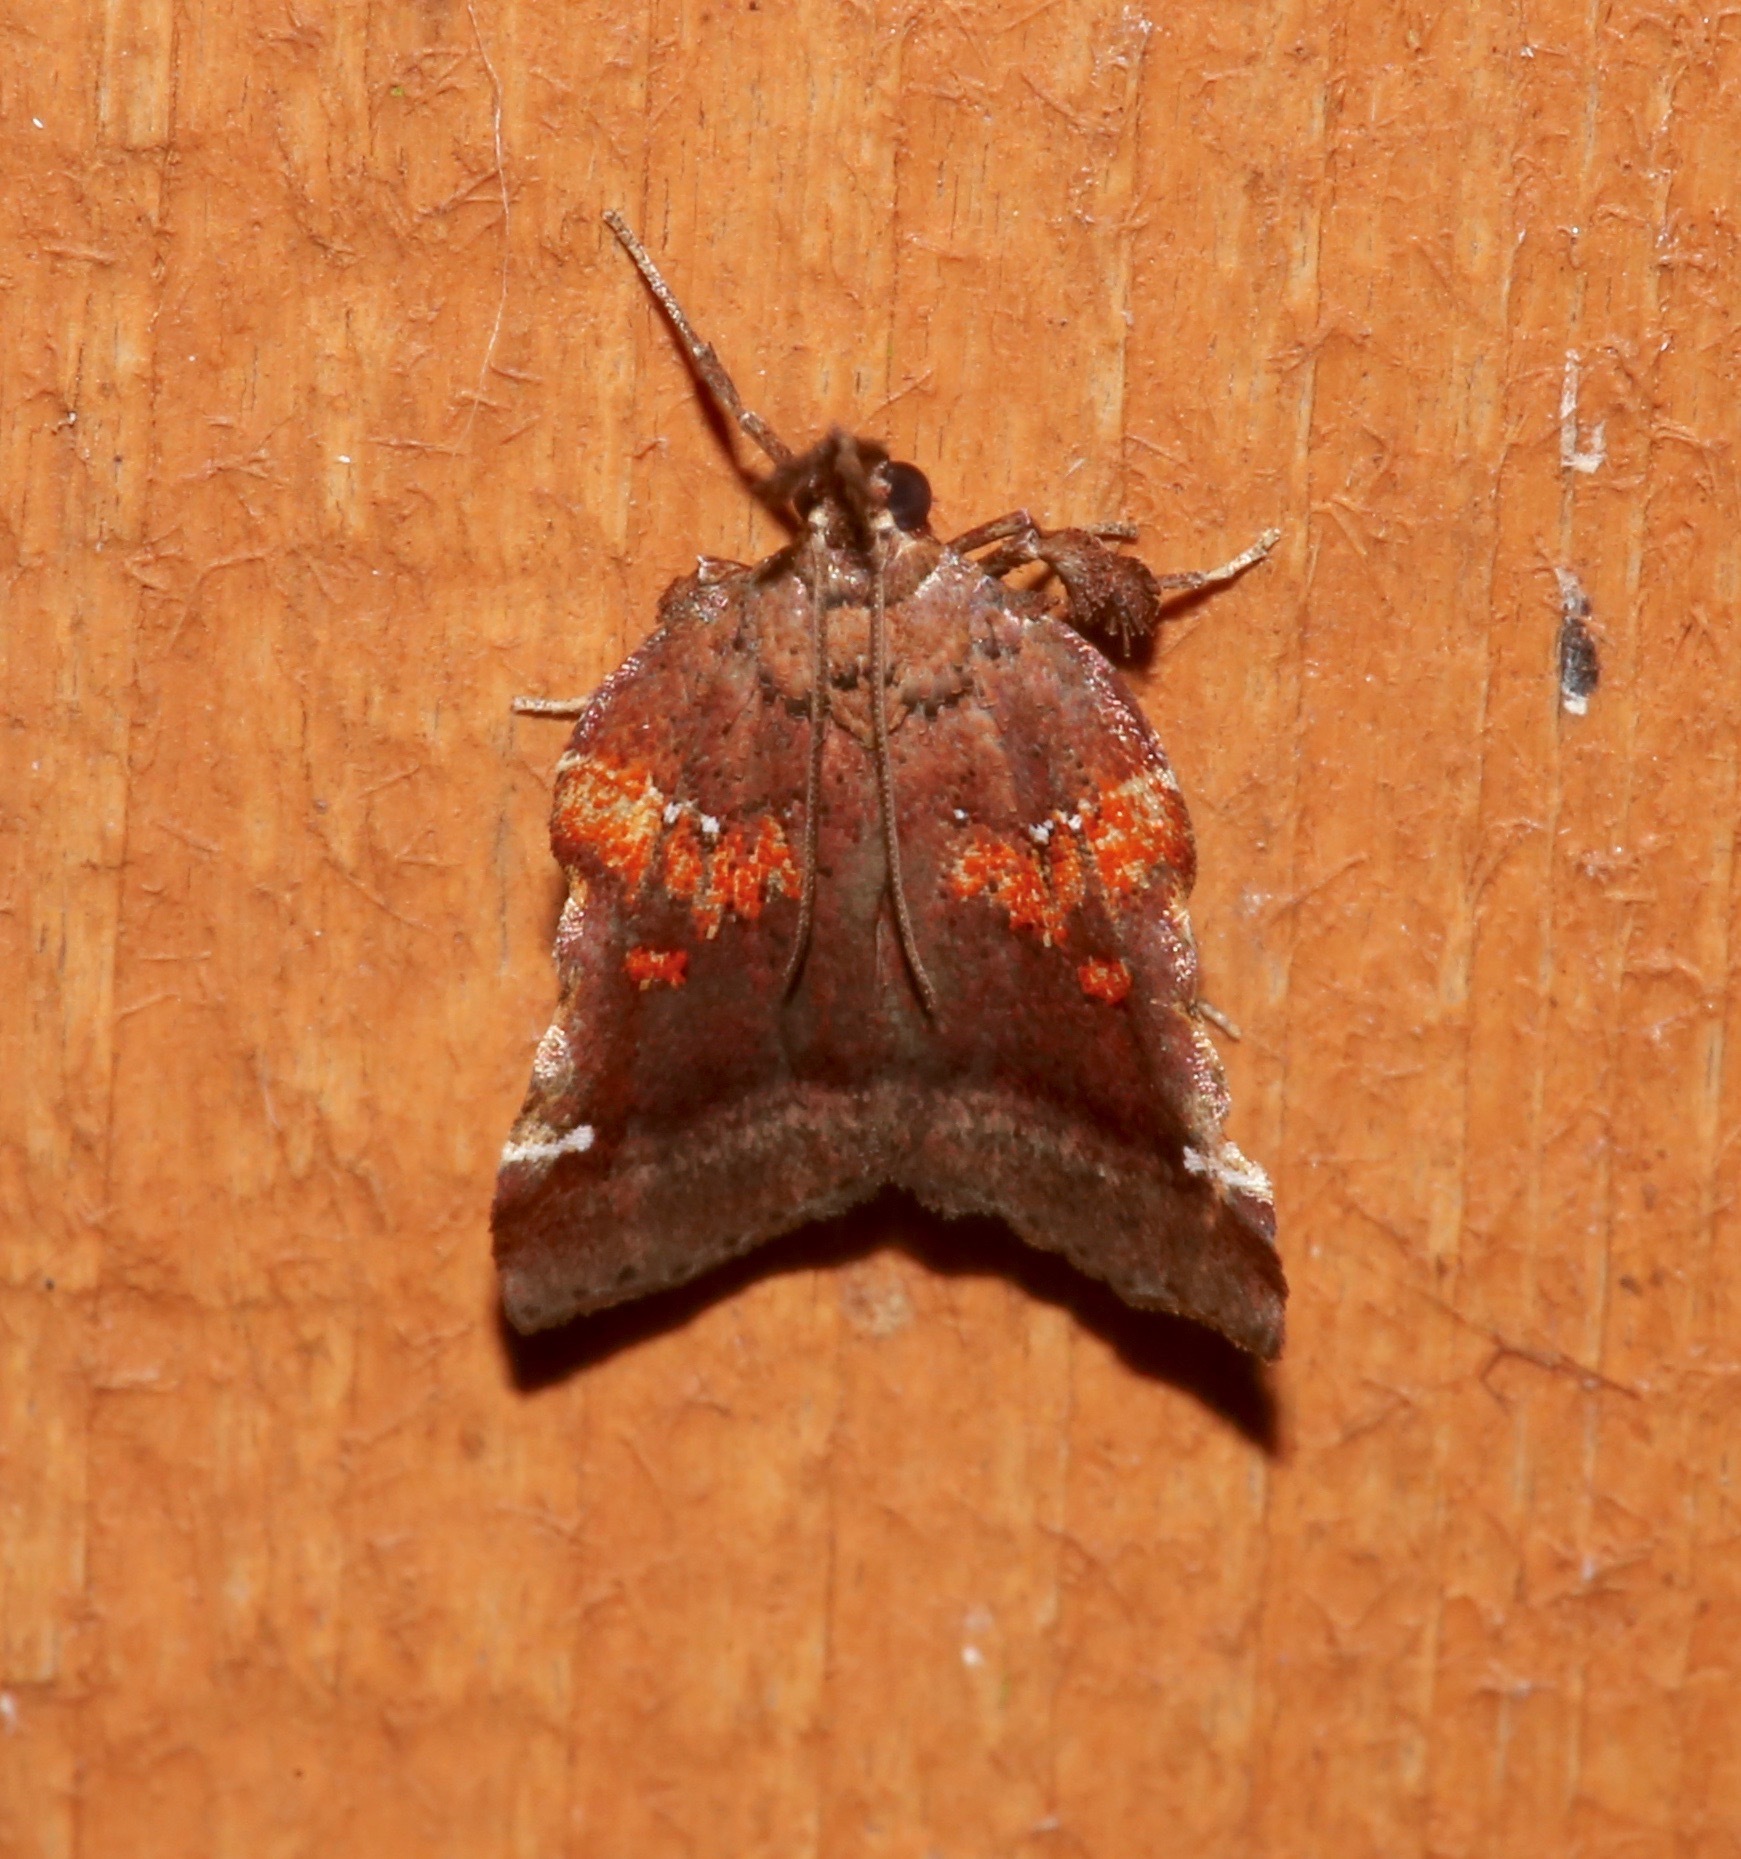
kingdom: Animalia
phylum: Arthropoda
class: Insecta
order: Lepidoptera
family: Pyralidae
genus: Clydonopteron
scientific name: Clydonopteron sacculana
